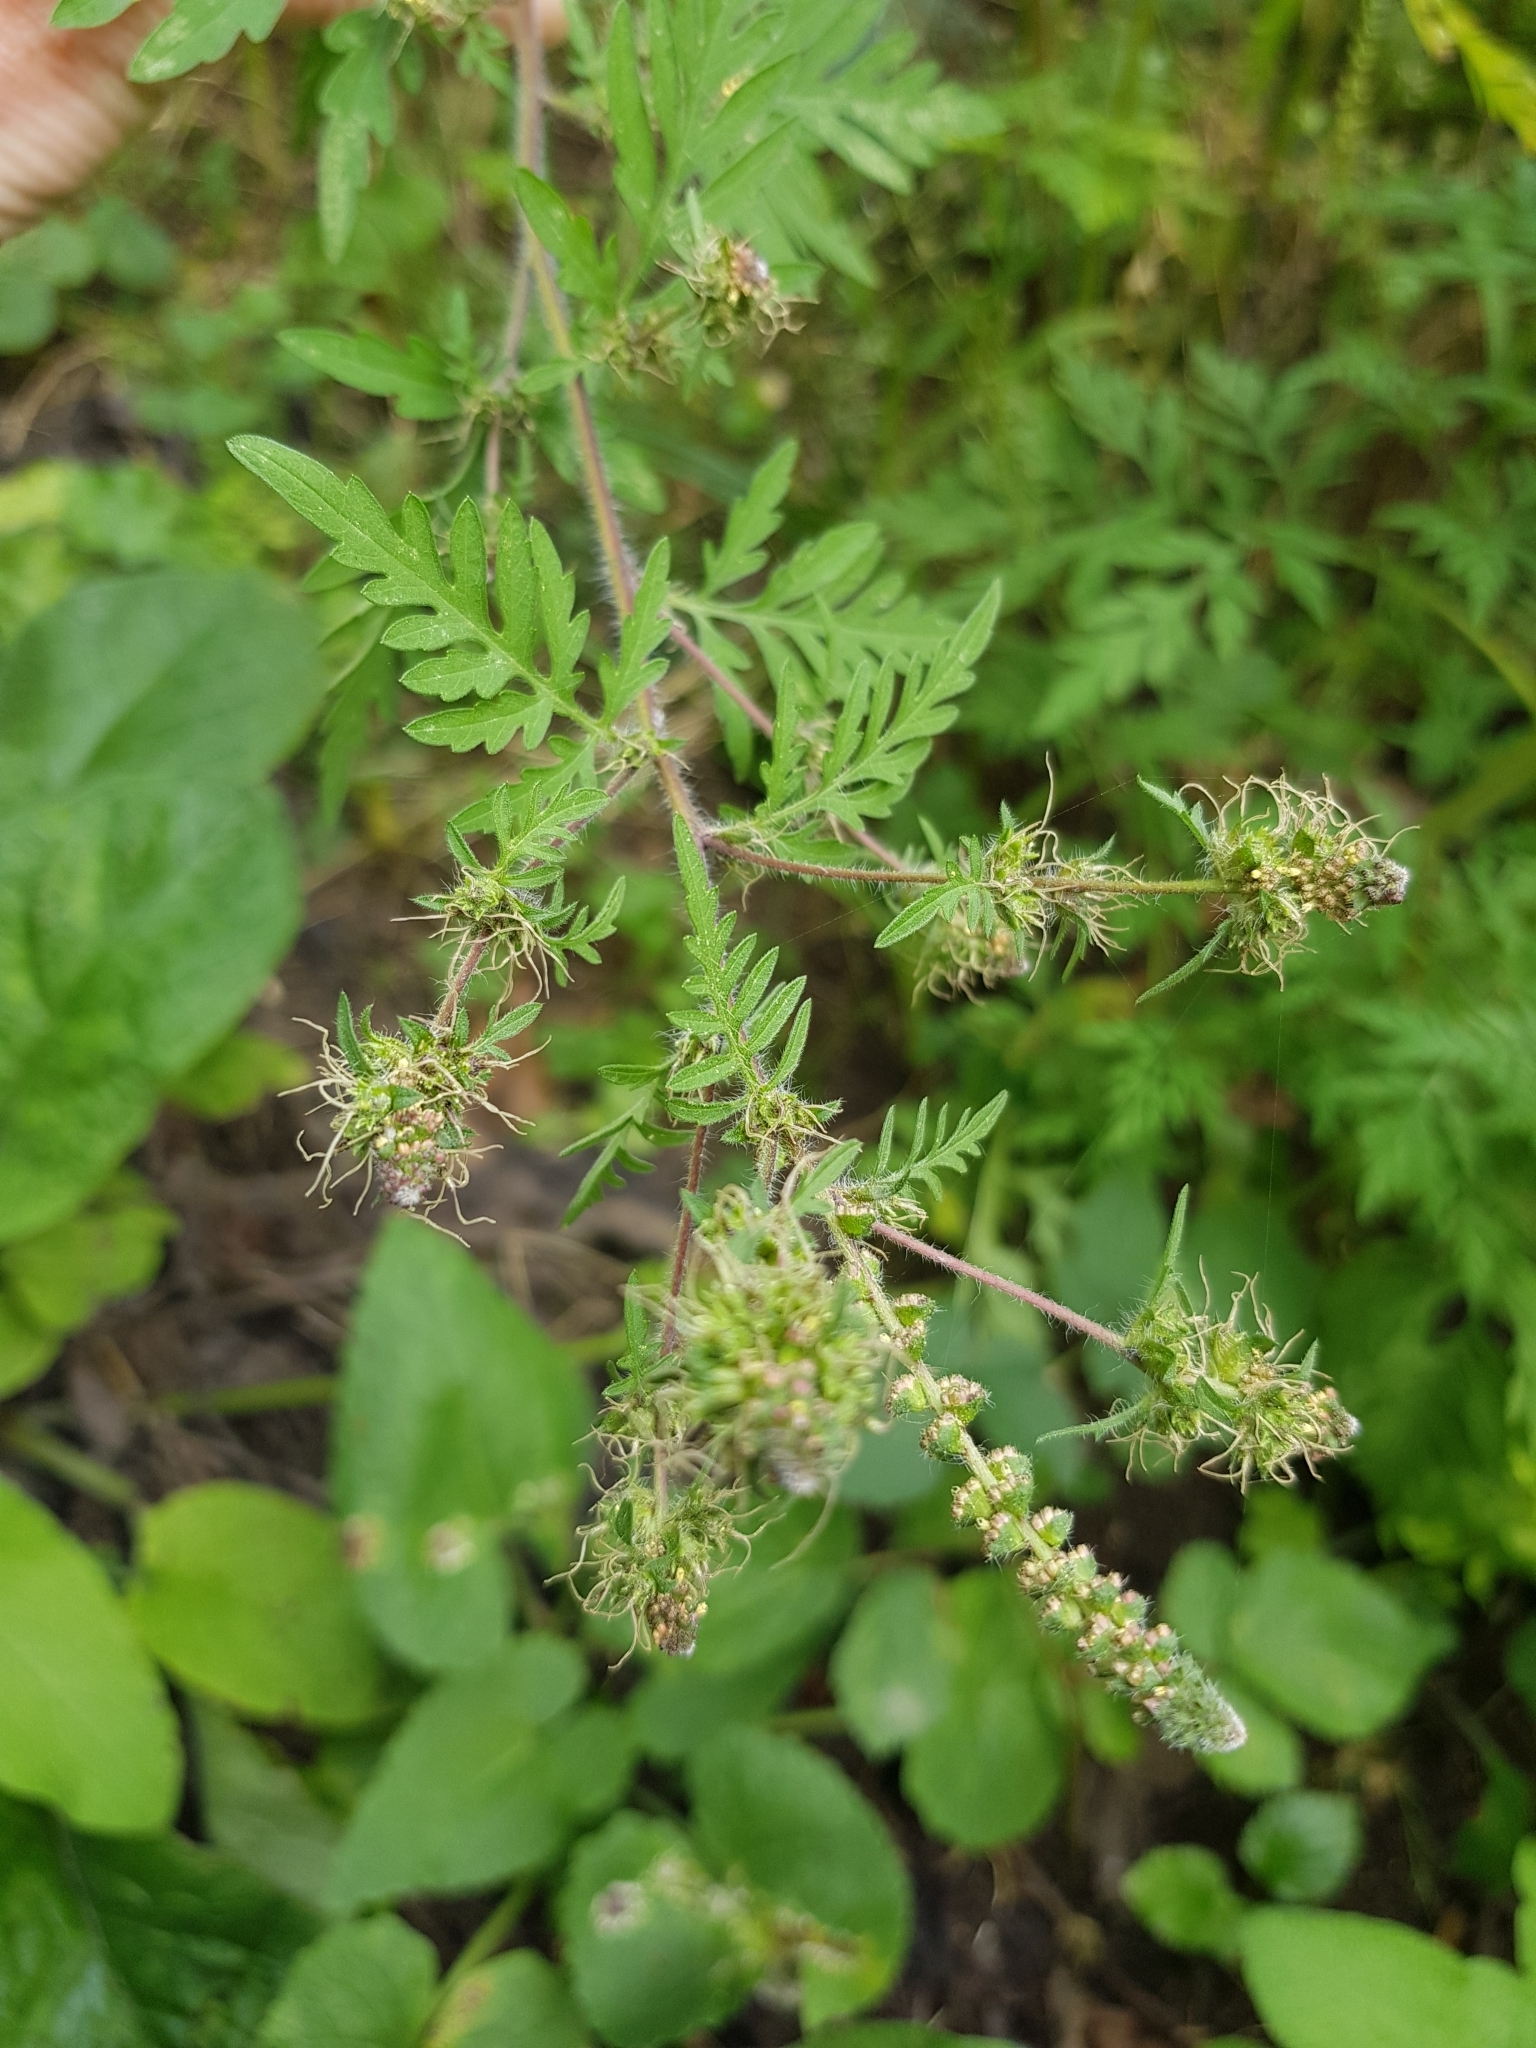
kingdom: Plantae
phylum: Tracheophyta
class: Magnoliopsida
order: Asterales
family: Asteraceae
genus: Ambrosia
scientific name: Ambrosia artemisiifolia
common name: Annual ragweed
